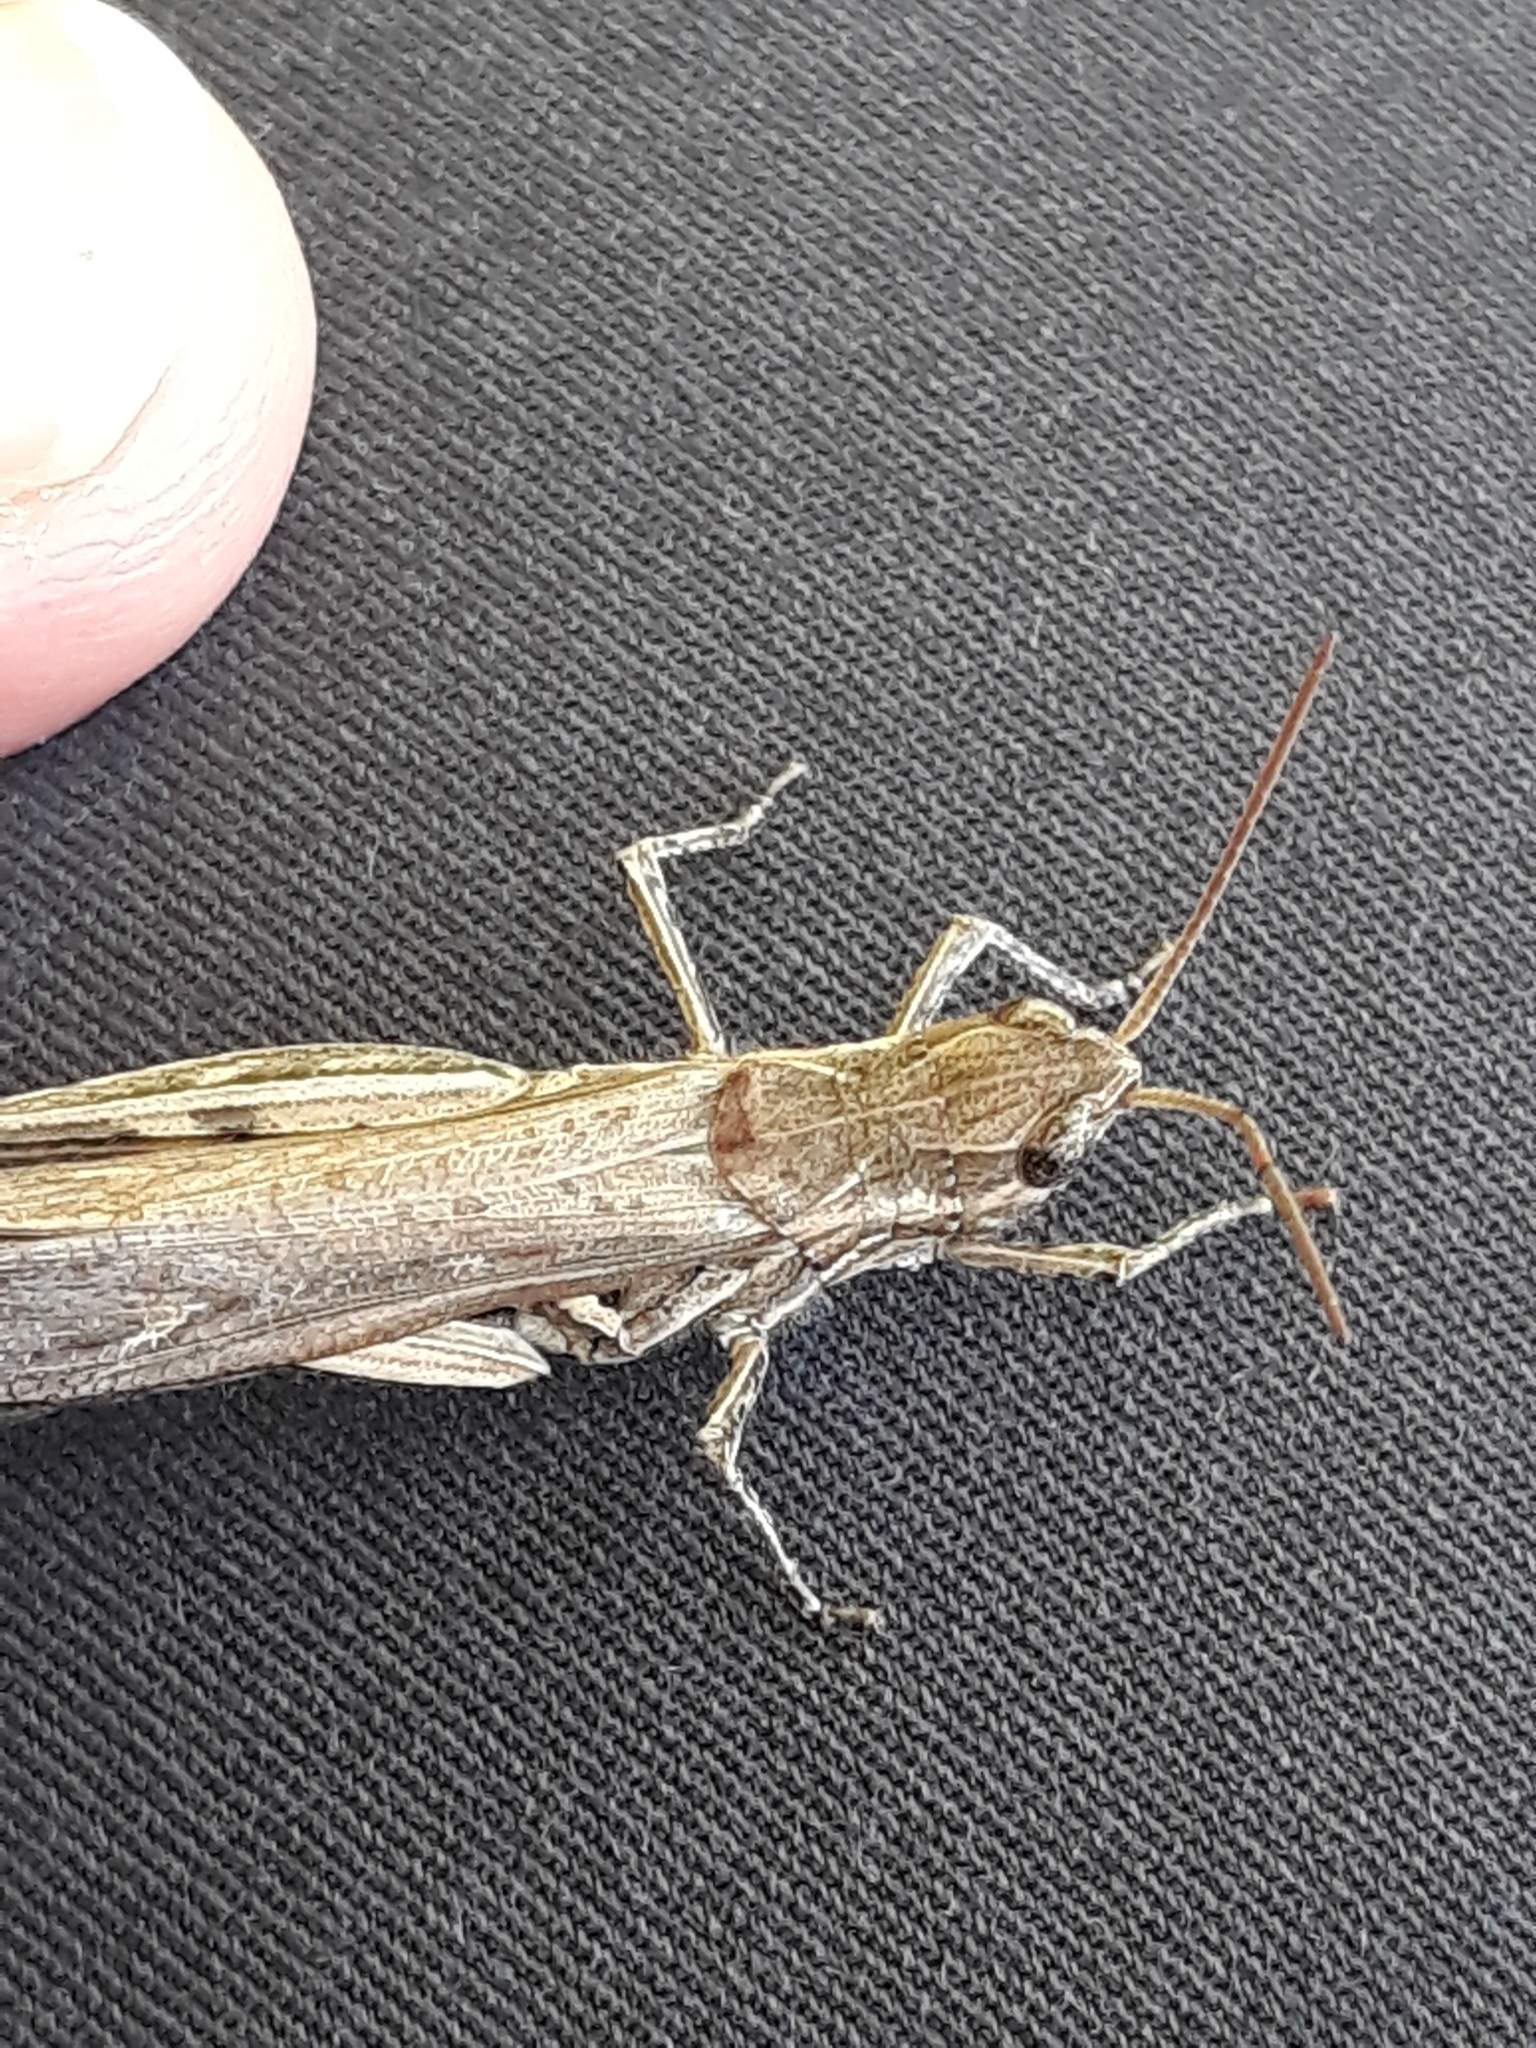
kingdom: Animalia
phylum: Arthropoda
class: Insecta
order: Orthoptera
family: Acrididae
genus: Chorthippus
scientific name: Chorthippus brunneus
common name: Field grasshopper
